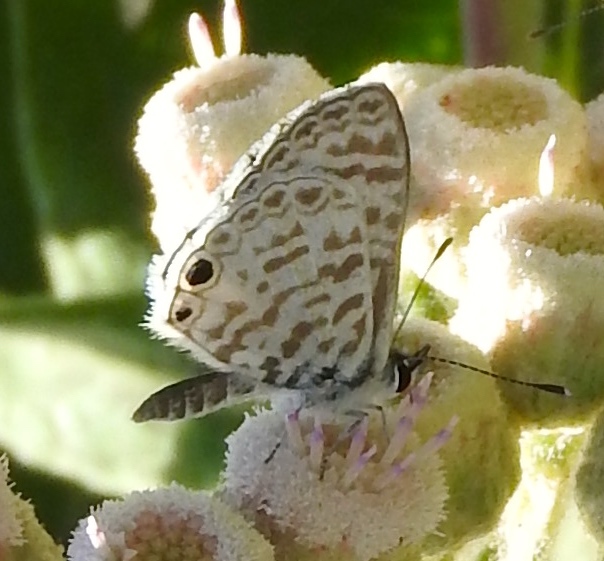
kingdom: Animalia
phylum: Arthropoda
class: Insecta
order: Lepidoptera
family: Lycaenidae
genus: Leptotes
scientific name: Leptotes cassius
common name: Cassius blue
